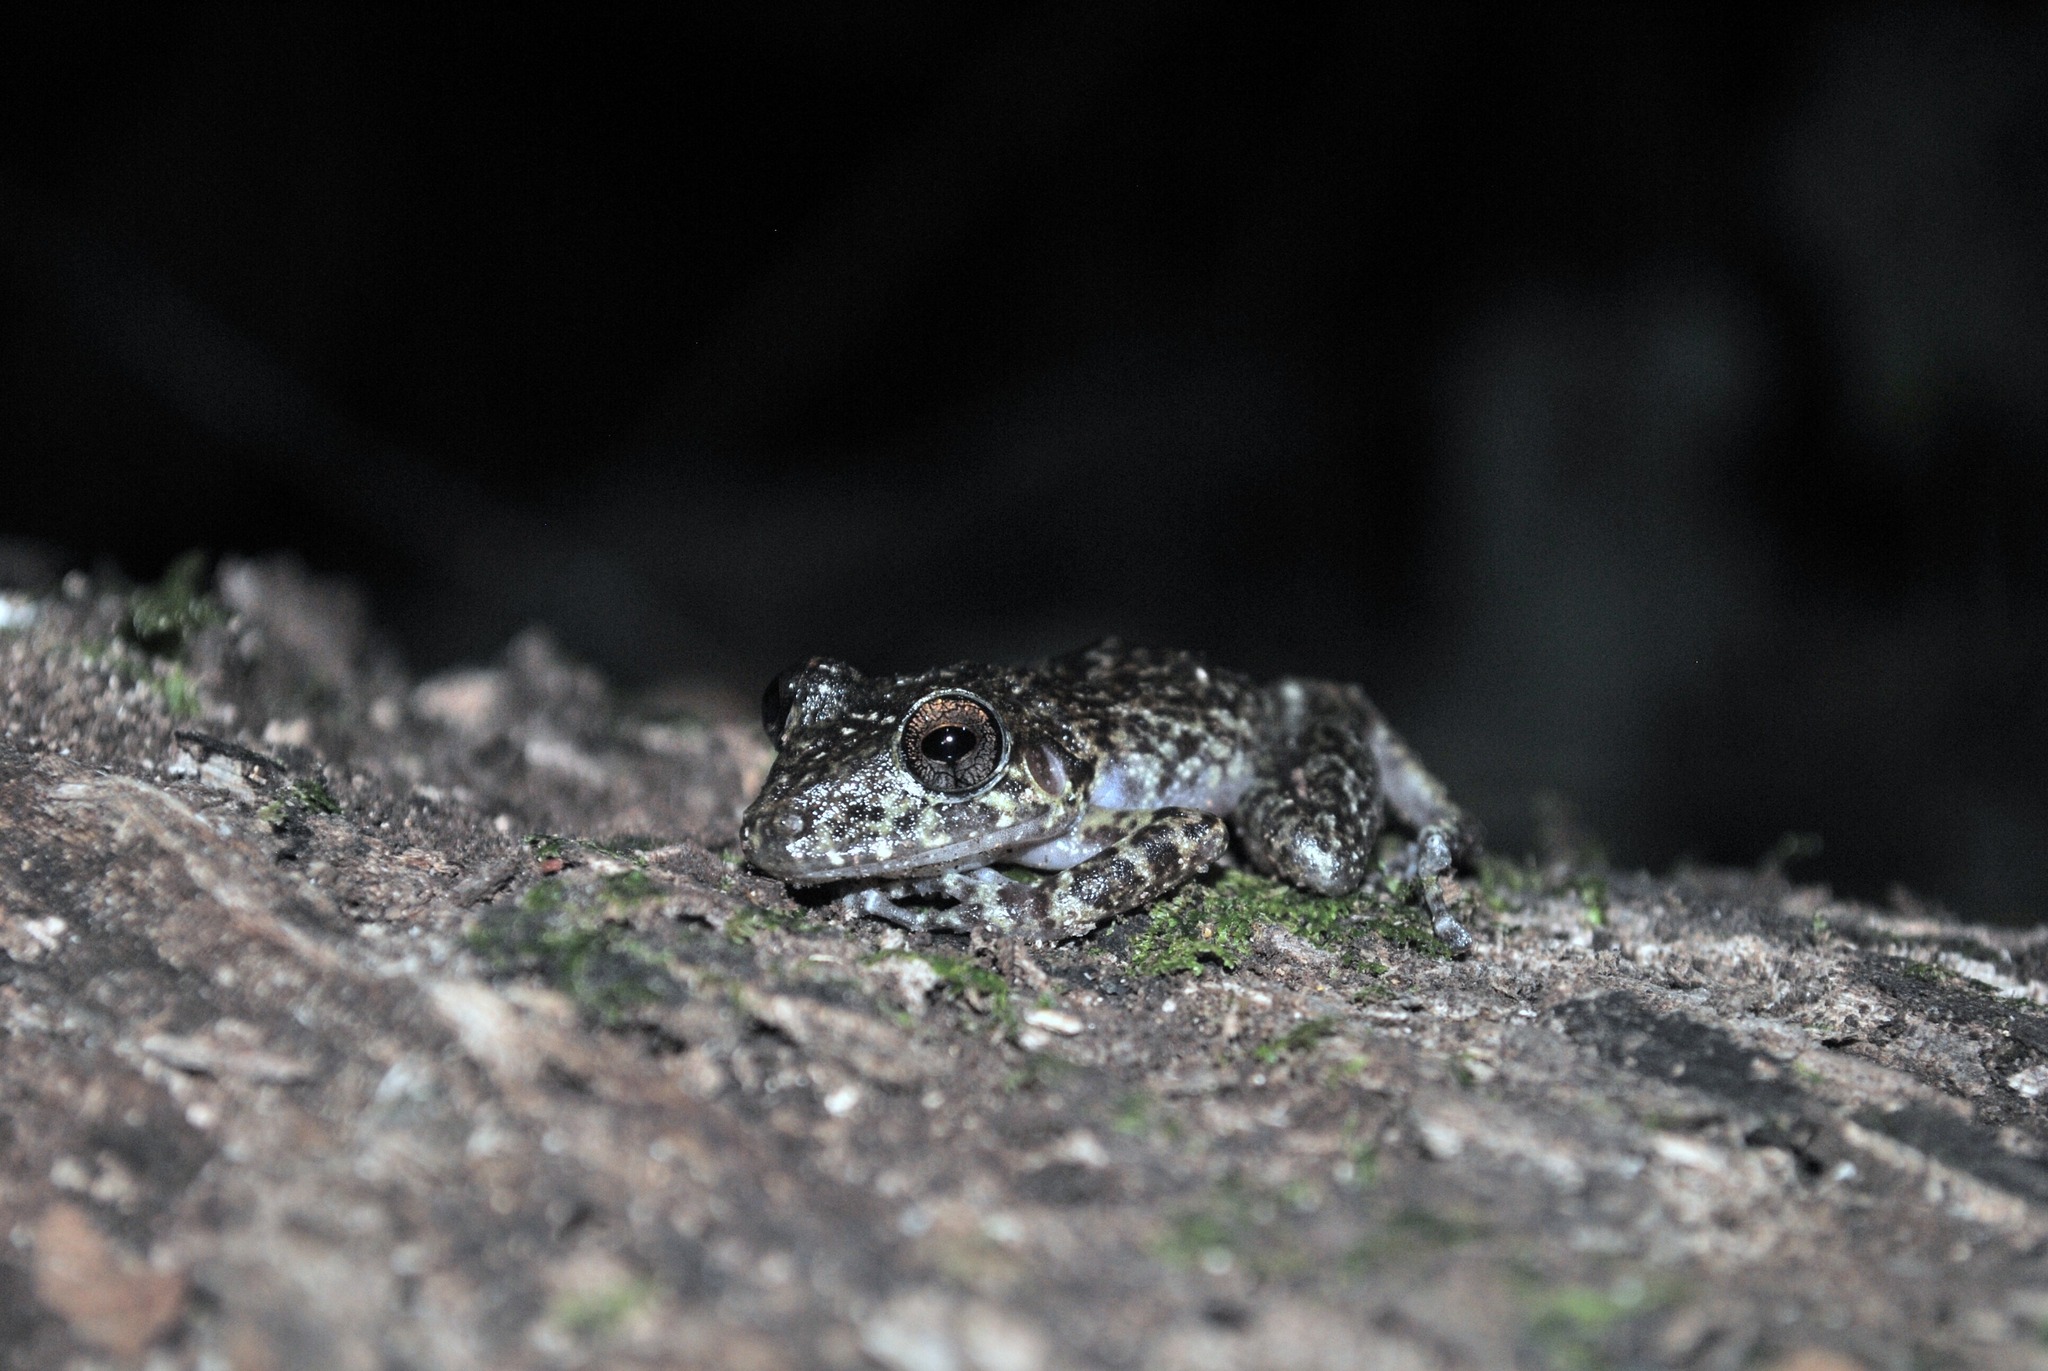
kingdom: Animalia
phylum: Chordata
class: Amphibia
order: Anura
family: Craugastoridae
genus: Craugastor
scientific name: Craugastor alfredi
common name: Alfred's rainfrog
